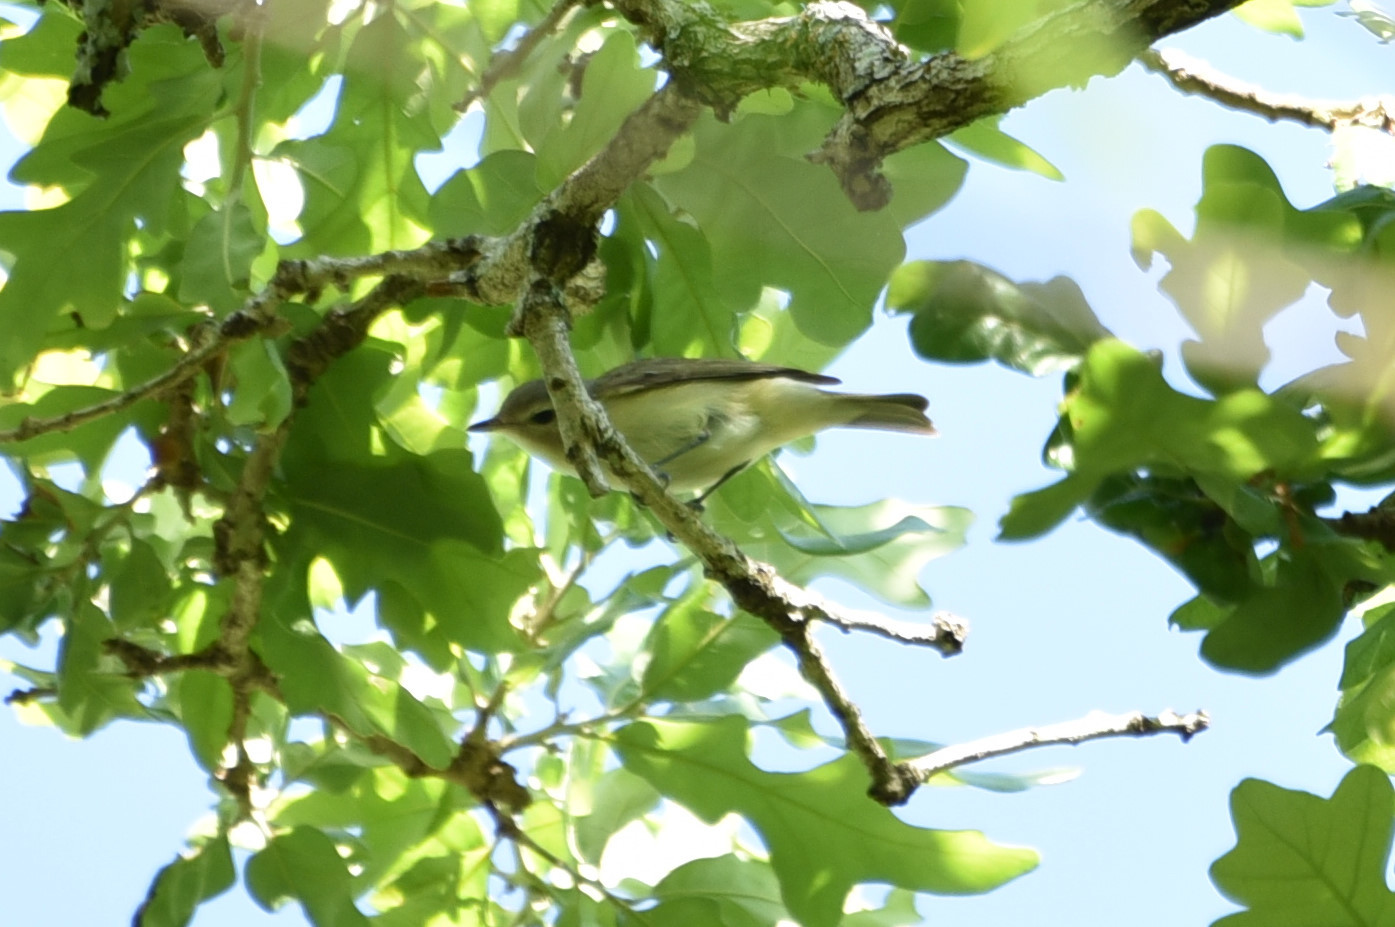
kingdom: Animalia
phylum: Chordata
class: Aves
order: Passeriformes
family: Vireonidae
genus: Vireo
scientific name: Vireo gilvus
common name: Warbling vireo
